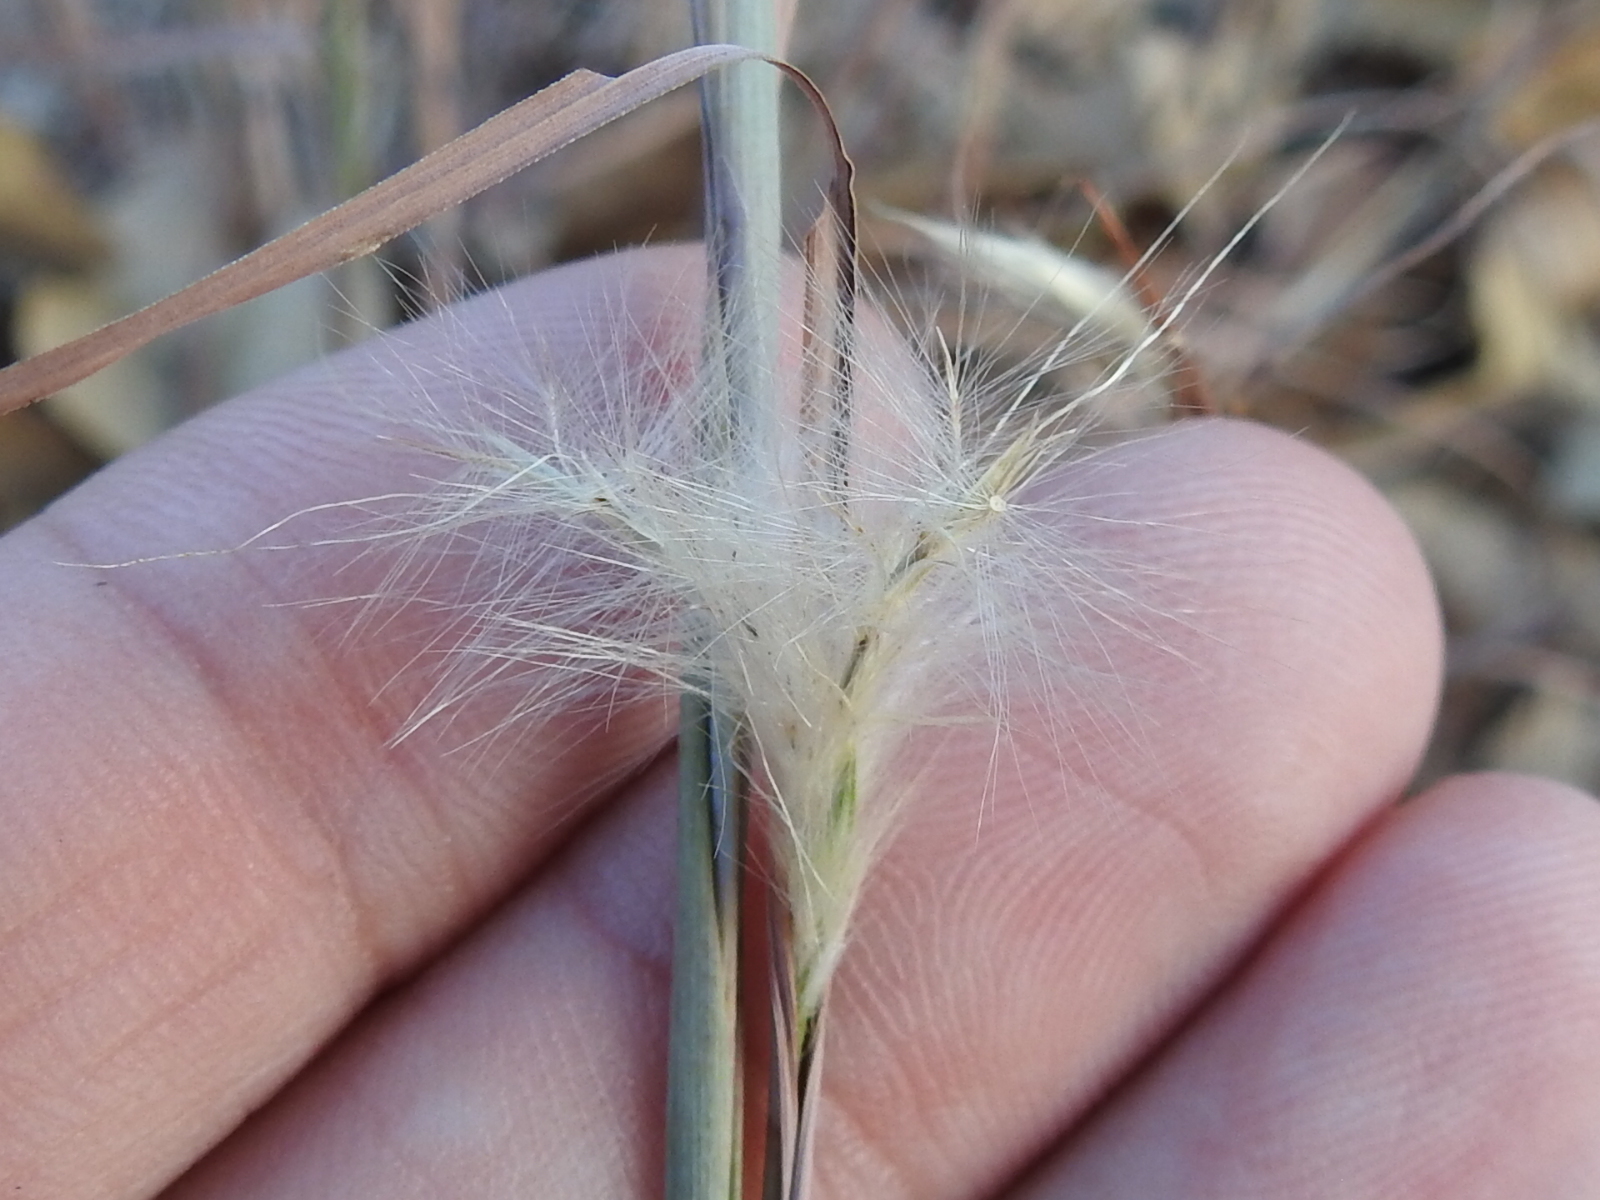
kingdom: Plantae
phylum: Tracheophyta
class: Liliopsida
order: Poales
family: Poaceae
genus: Andropogon
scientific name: Andropogon ternarius
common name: Split bluestem
